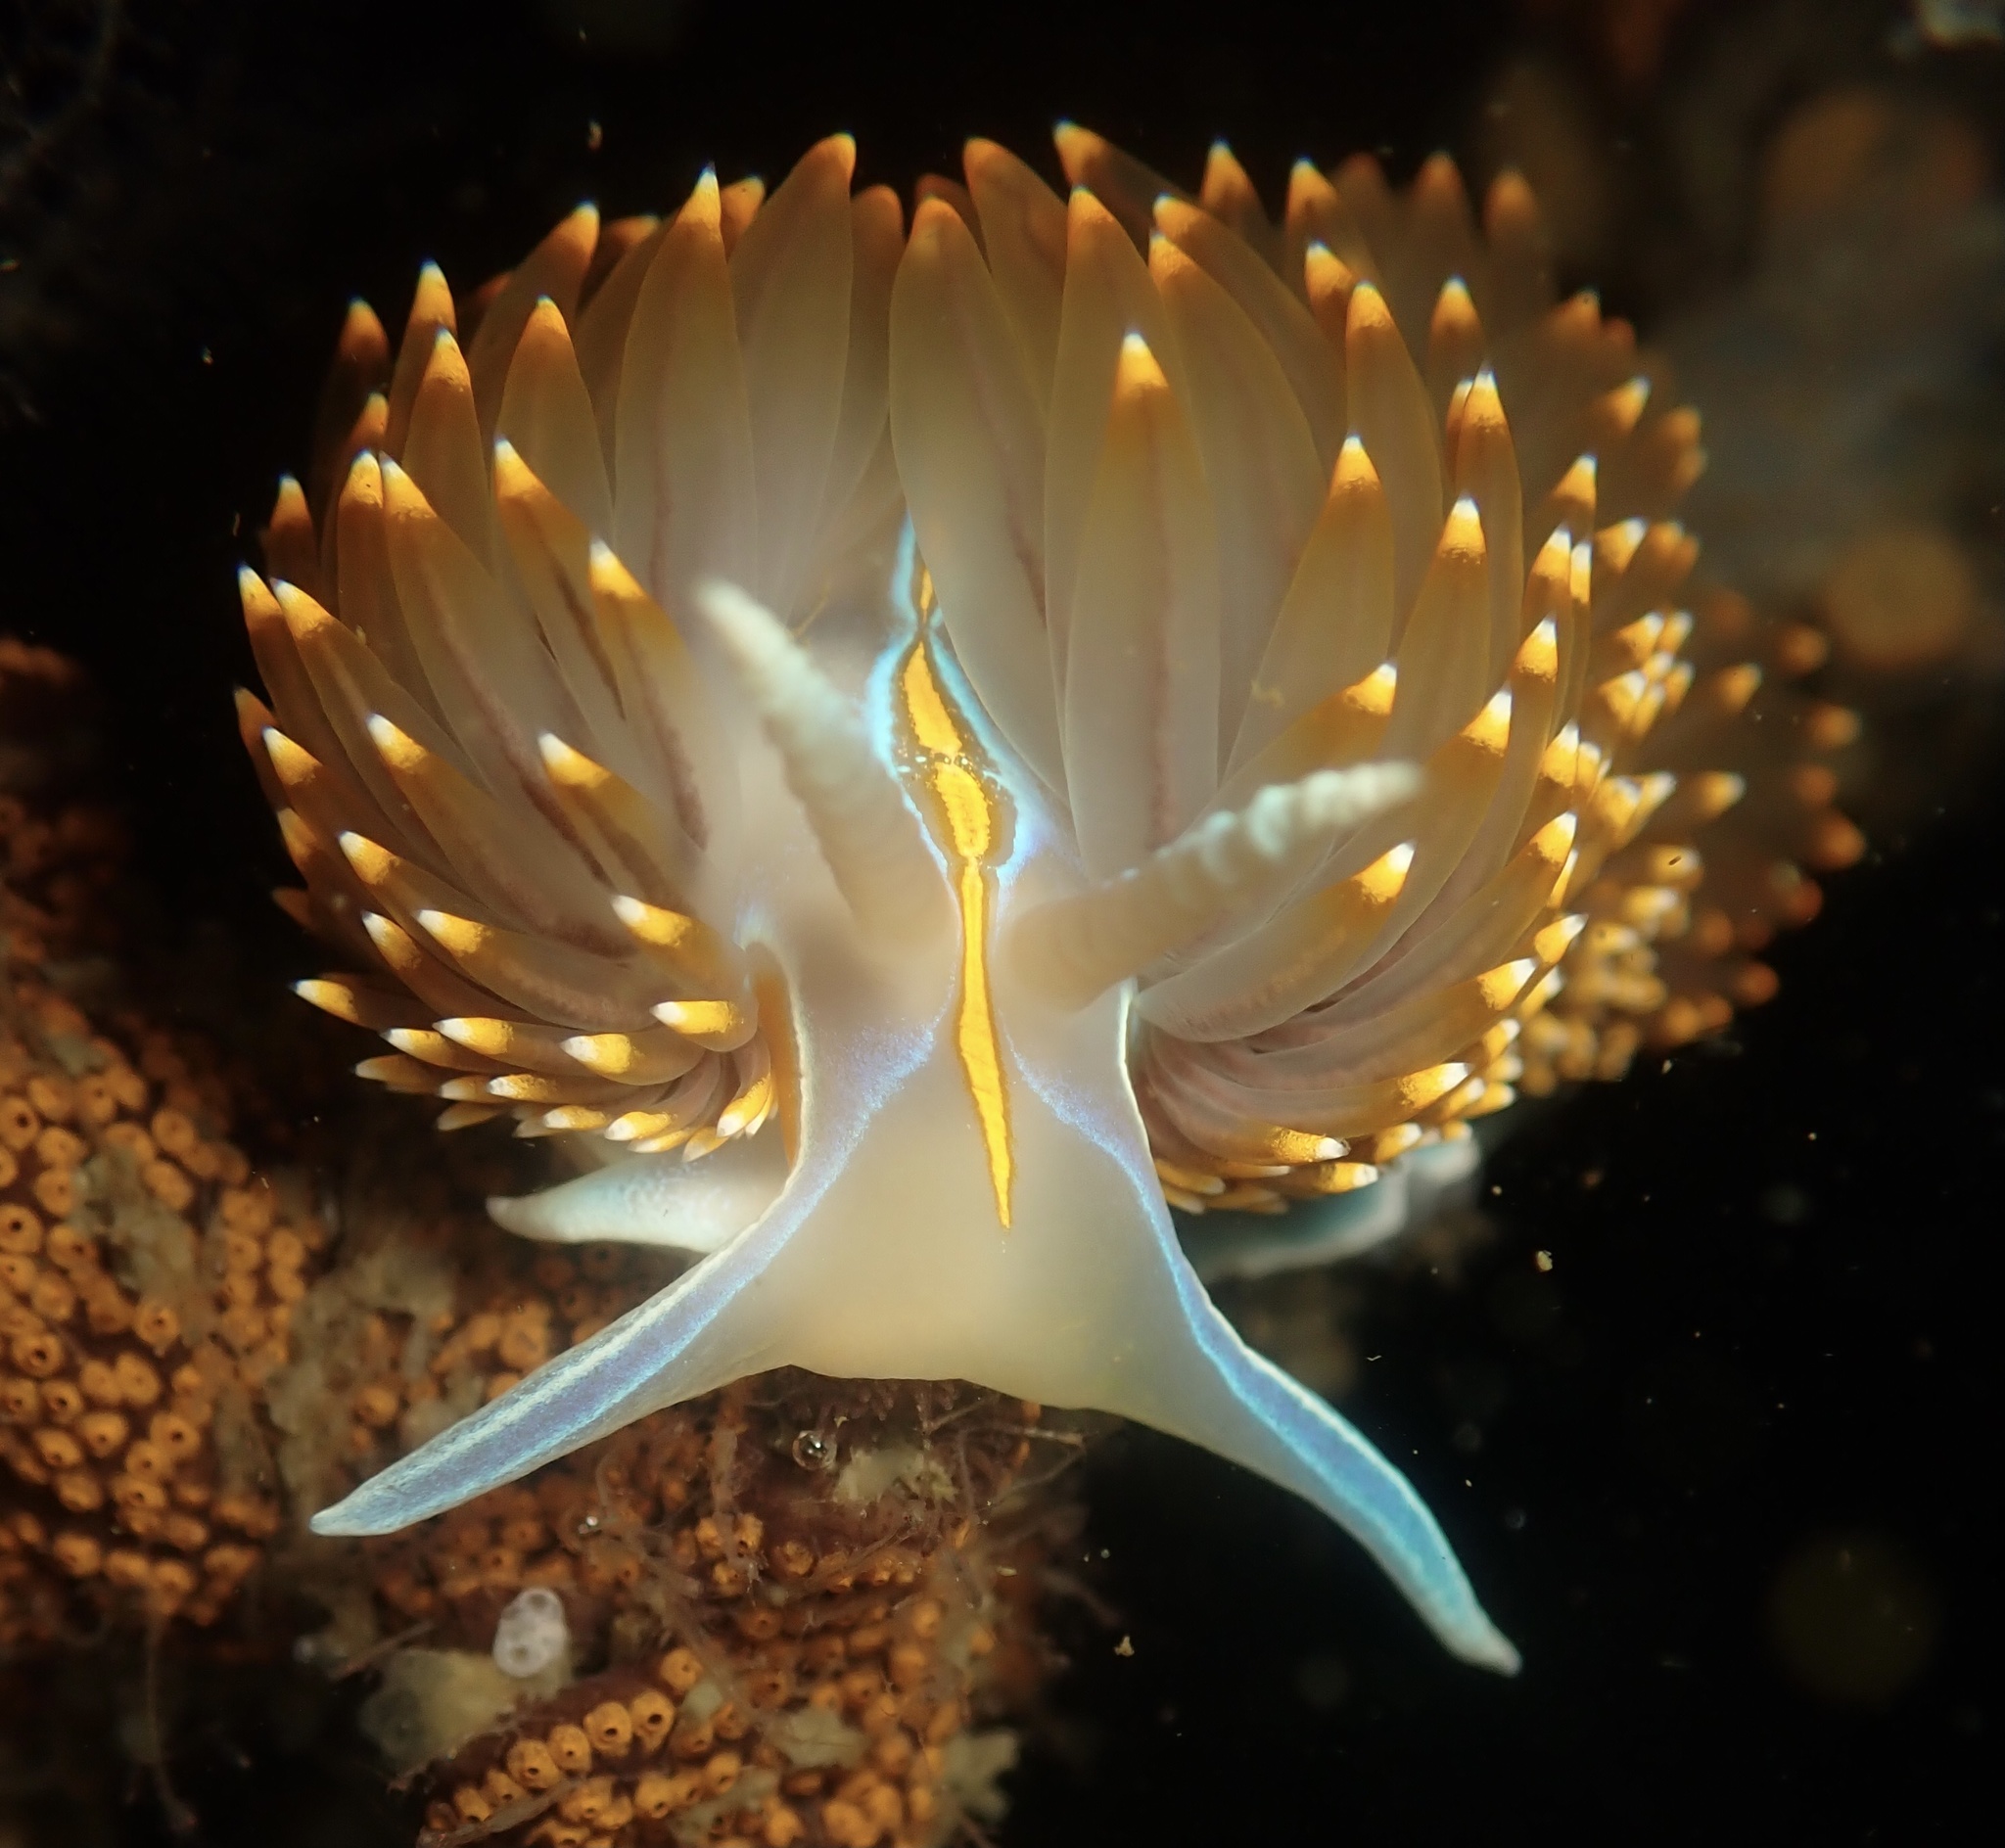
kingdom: Animalia
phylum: Mollusca
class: Gastropoda
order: Nudibranchia
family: Myrrhinidae
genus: Hermissenda
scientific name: Hermissenda opalescens
